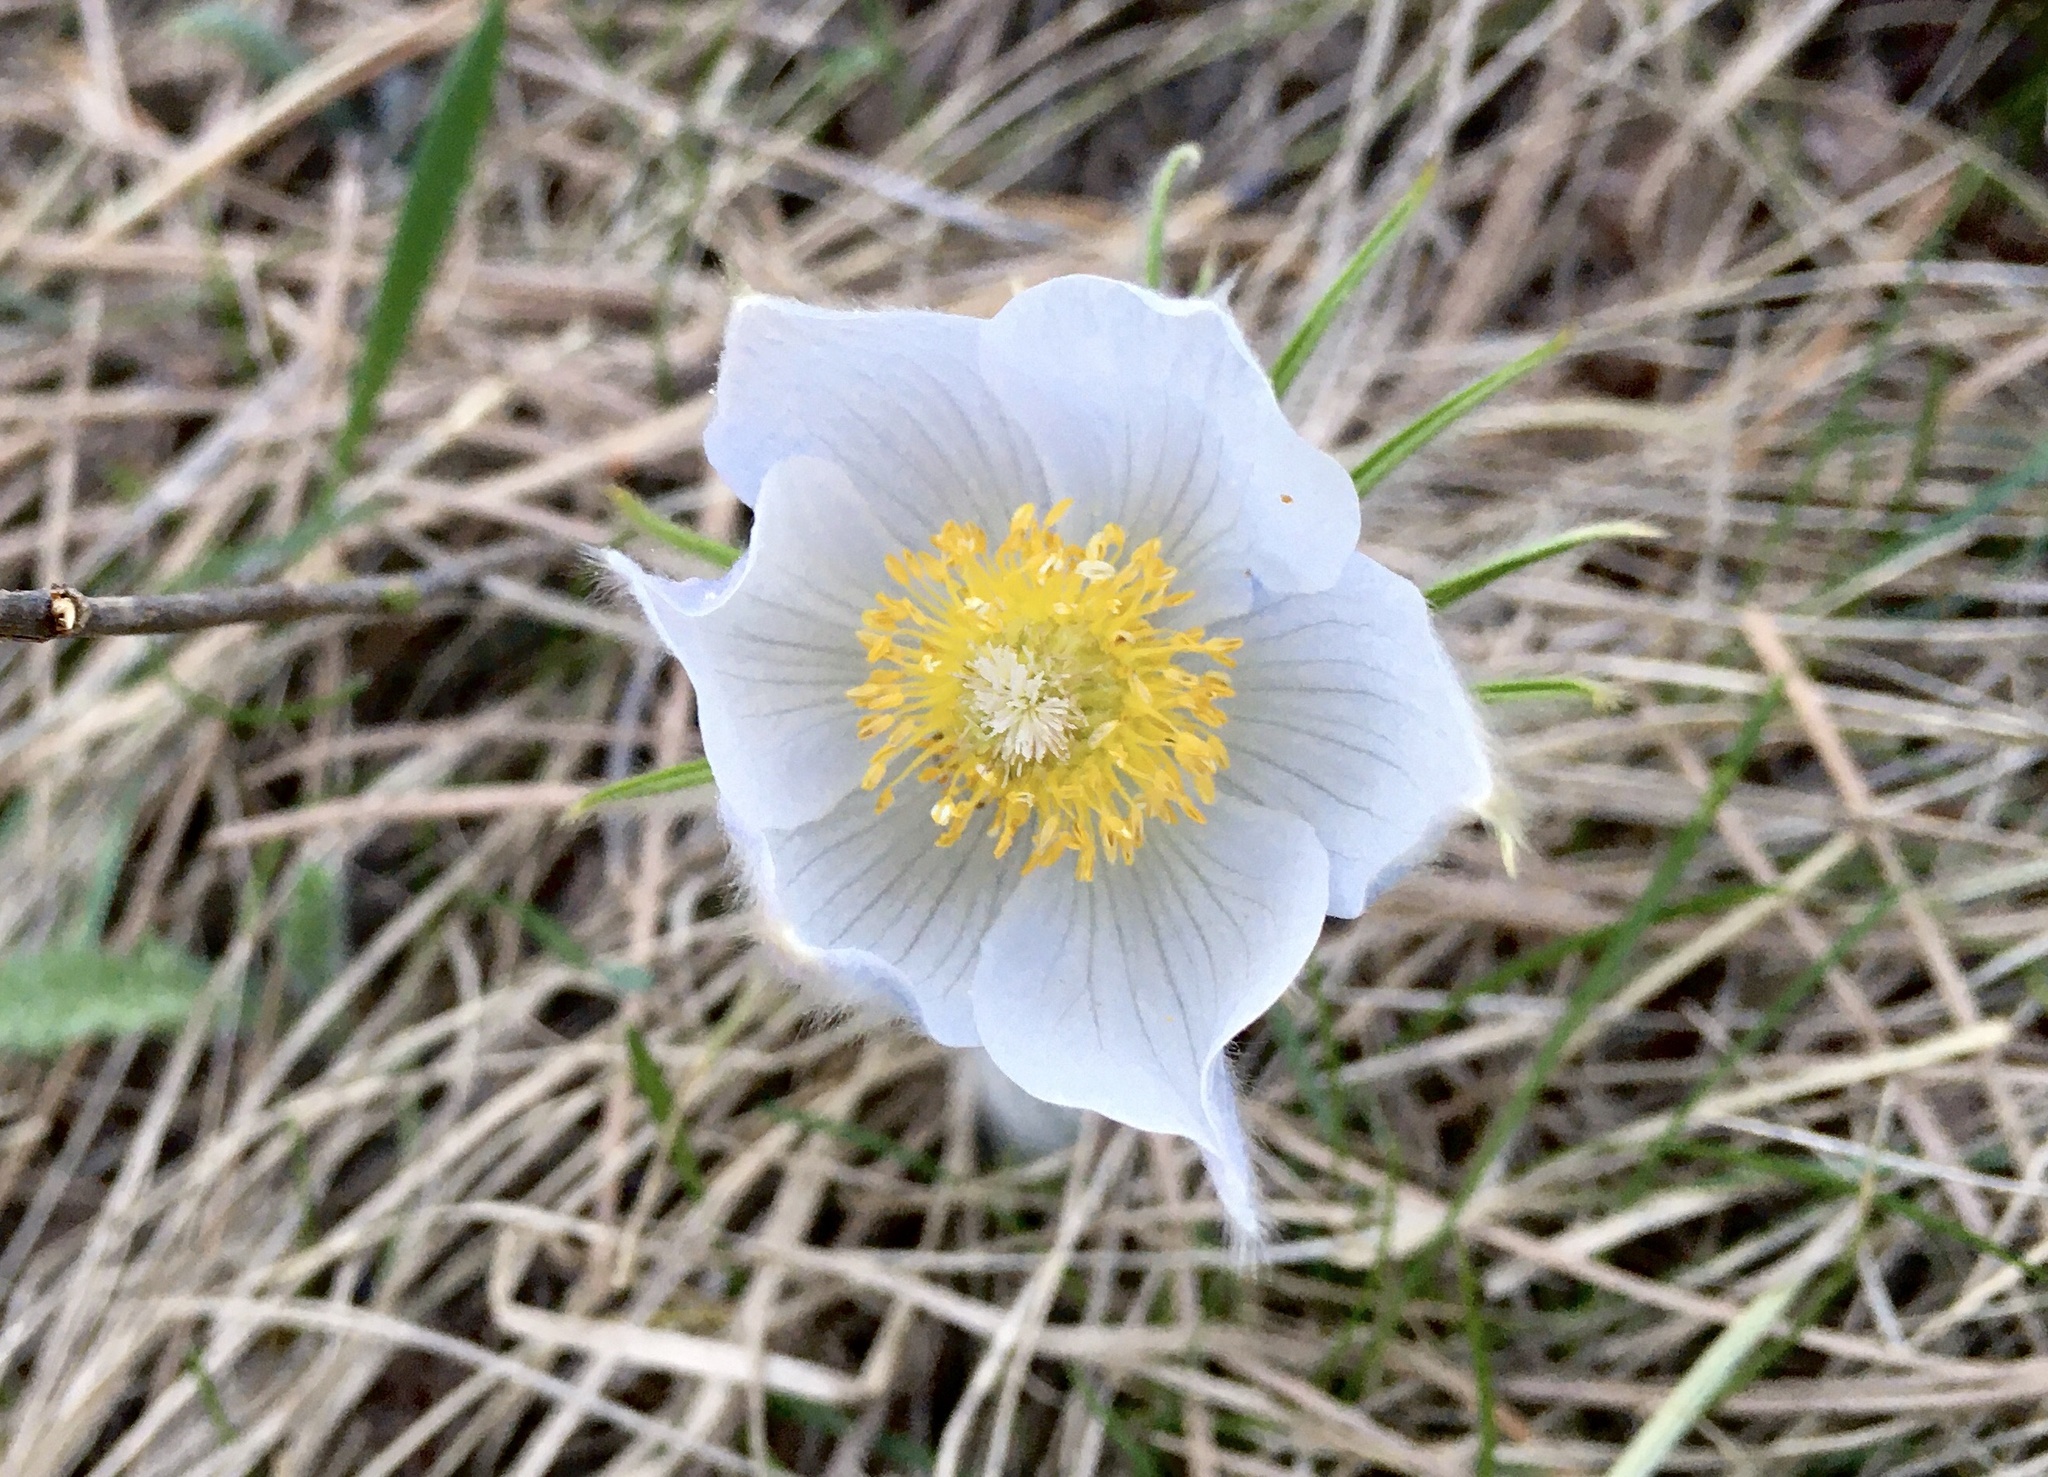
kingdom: Plantae
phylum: Tracheophyta
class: Magnoliopsida
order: Ranunculales
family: Ranunculaceae
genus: Pulsatilla
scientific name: Pulsatilla nuttalliana
